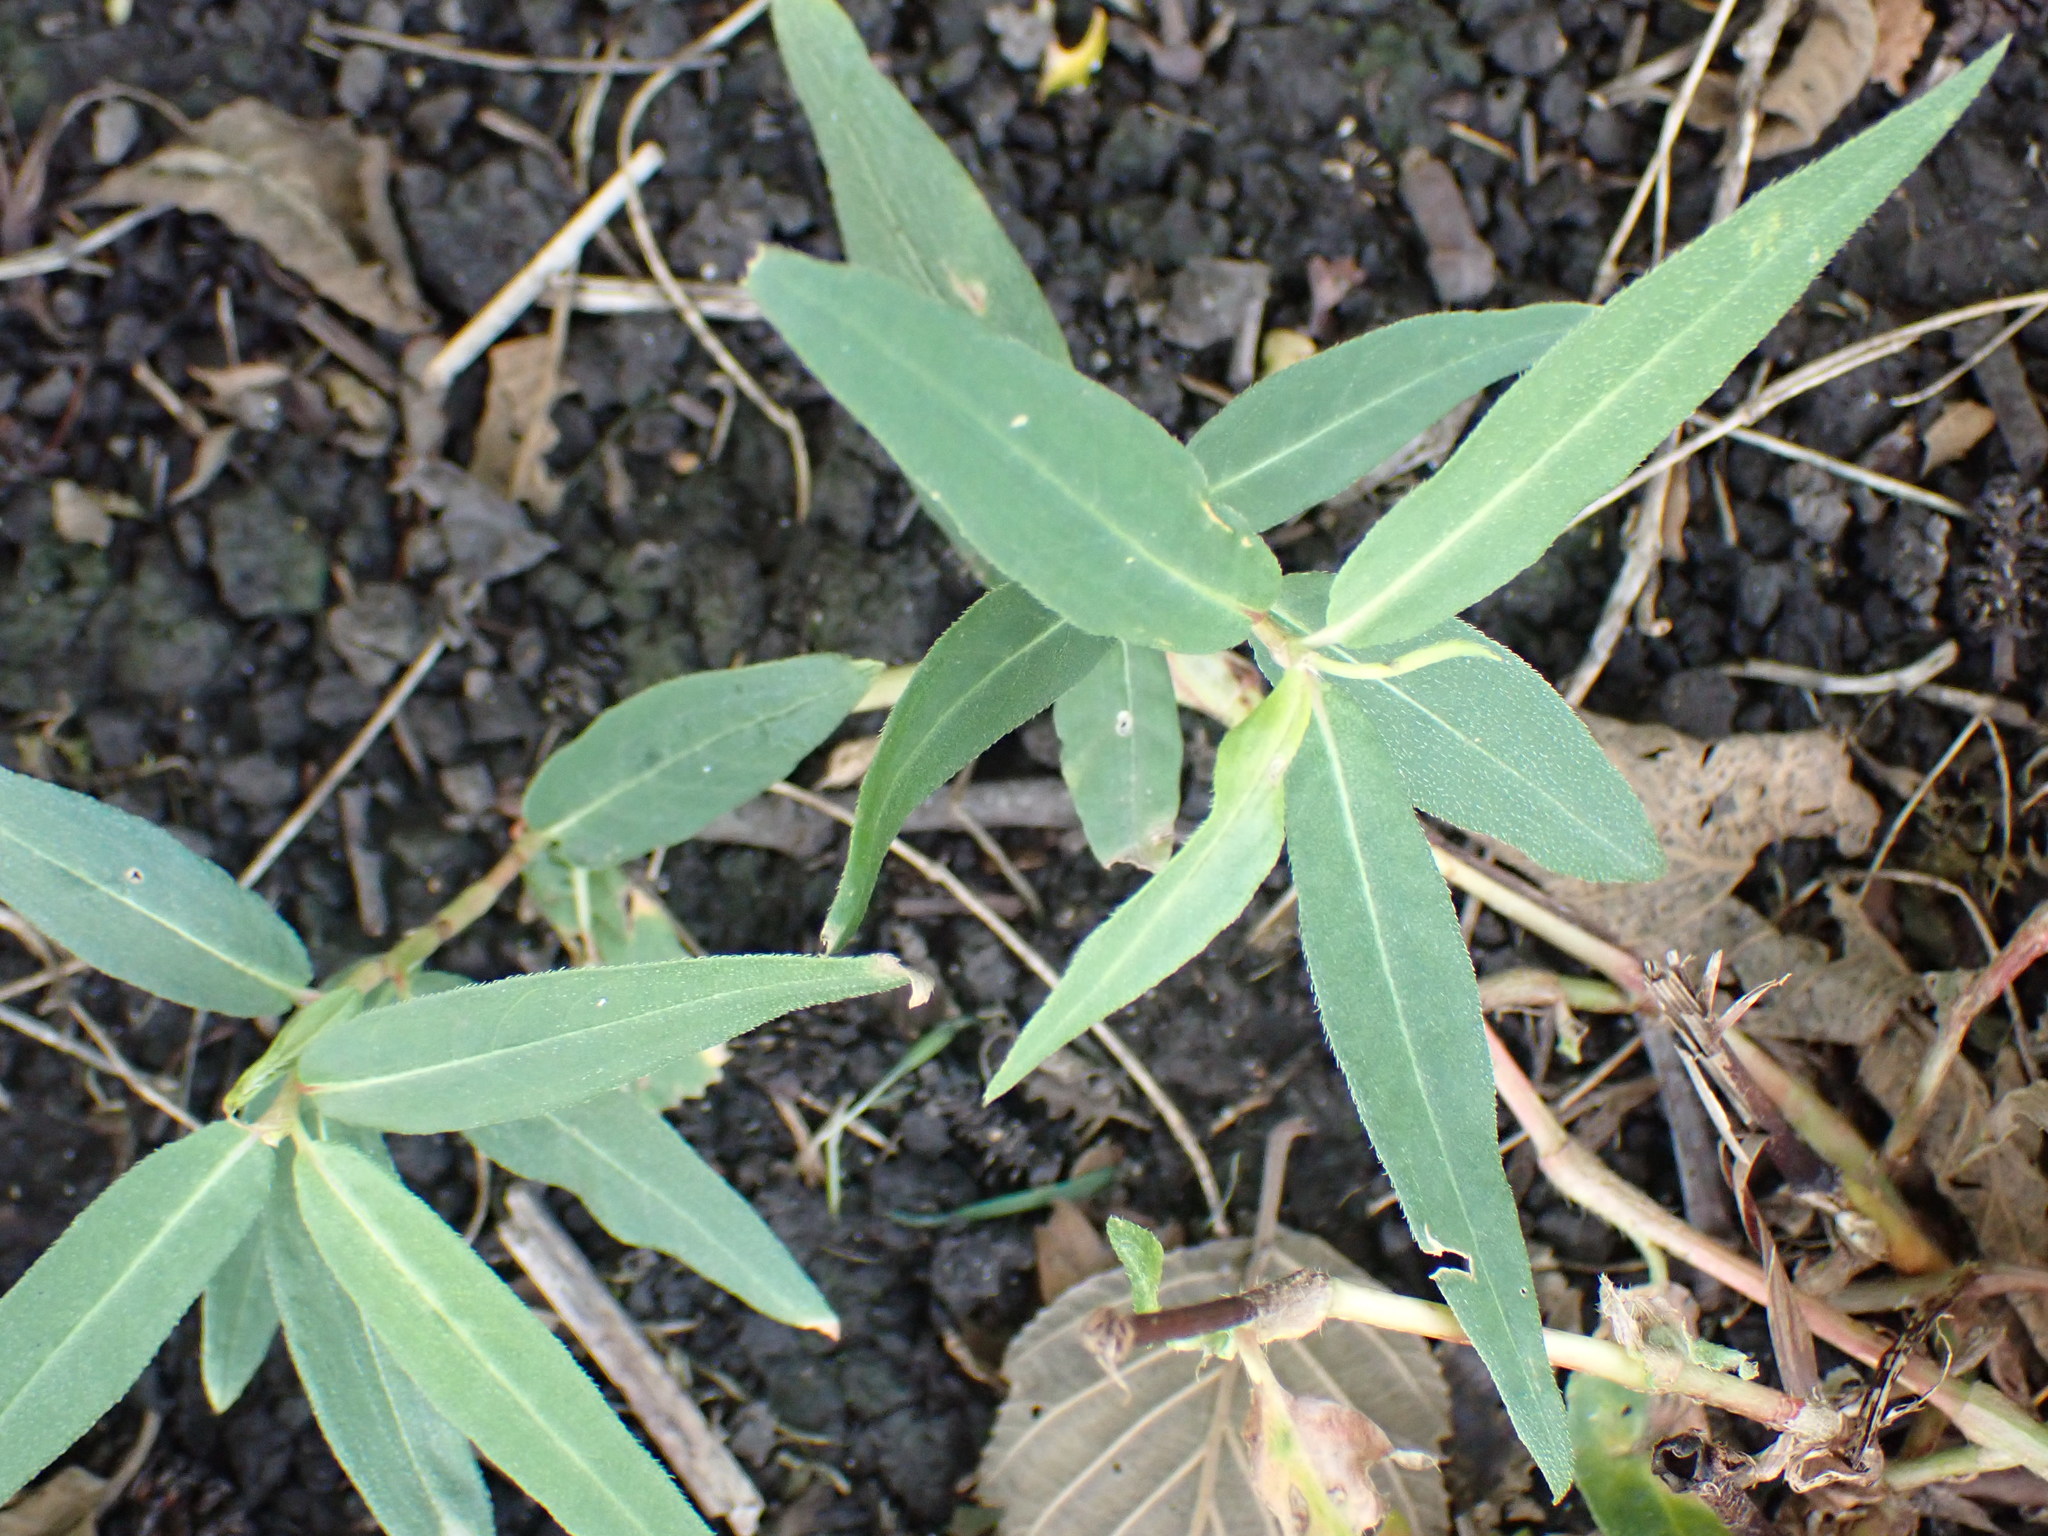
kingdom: Plantae
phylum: Tracheophyta
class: Magnoliopsida
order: Caryophyllales
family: Polygonaceae
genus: Persicaria
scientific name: Persicaria amphibia
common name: Amphibious bistort
